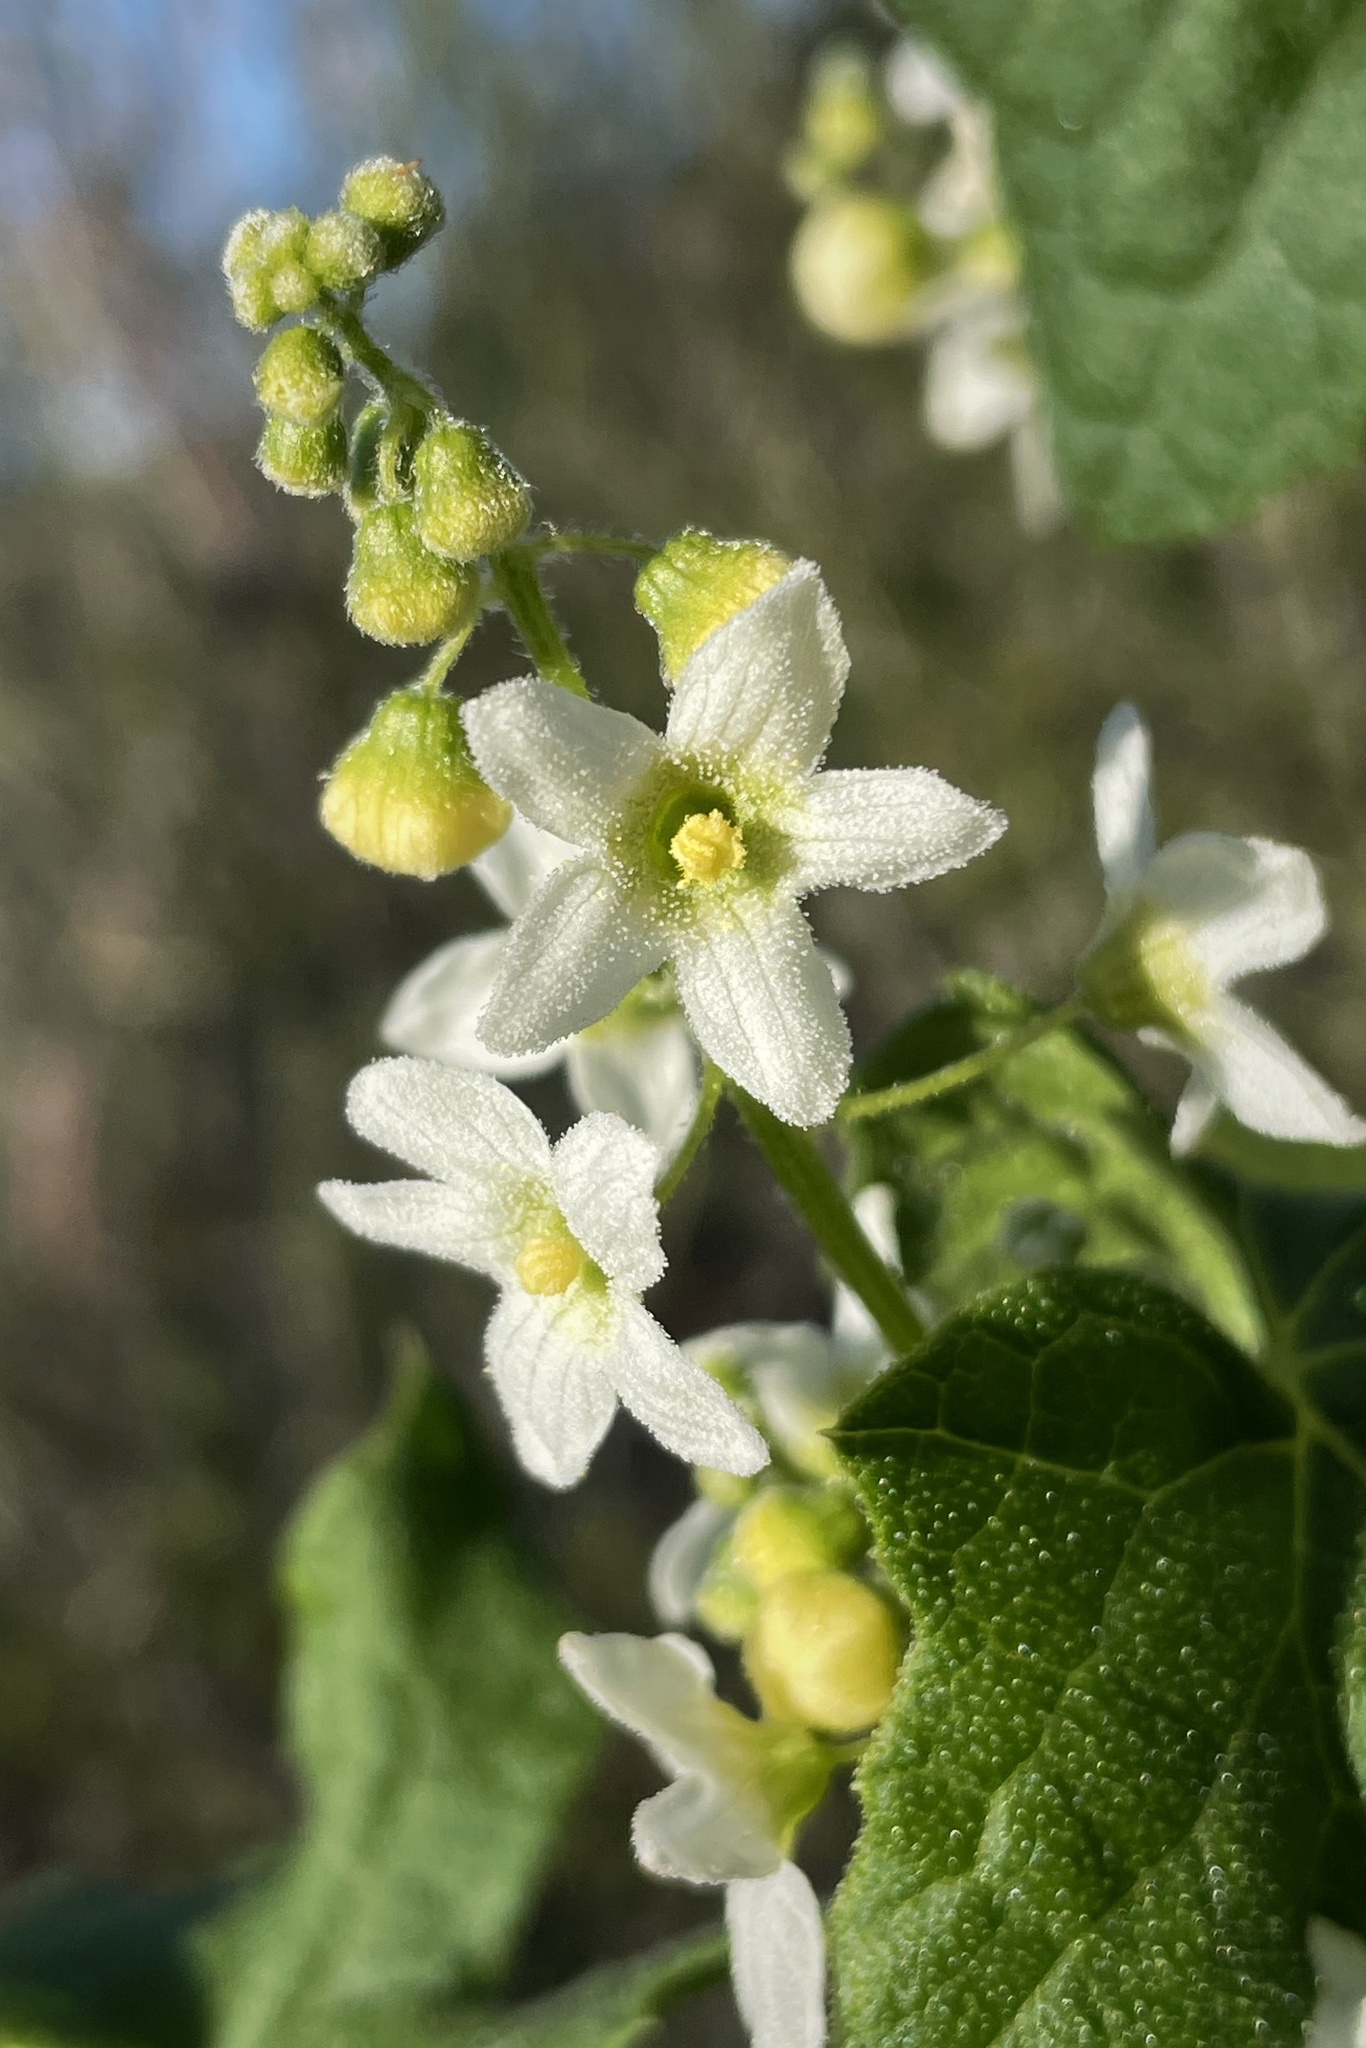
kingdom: Plantae
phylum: Tracheophyta
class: Magnoliopsida
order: Cucurbitales
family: Cucurbitaceae
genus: Marah
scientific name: Marah macrocarpa
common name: Cucamonga manroot
